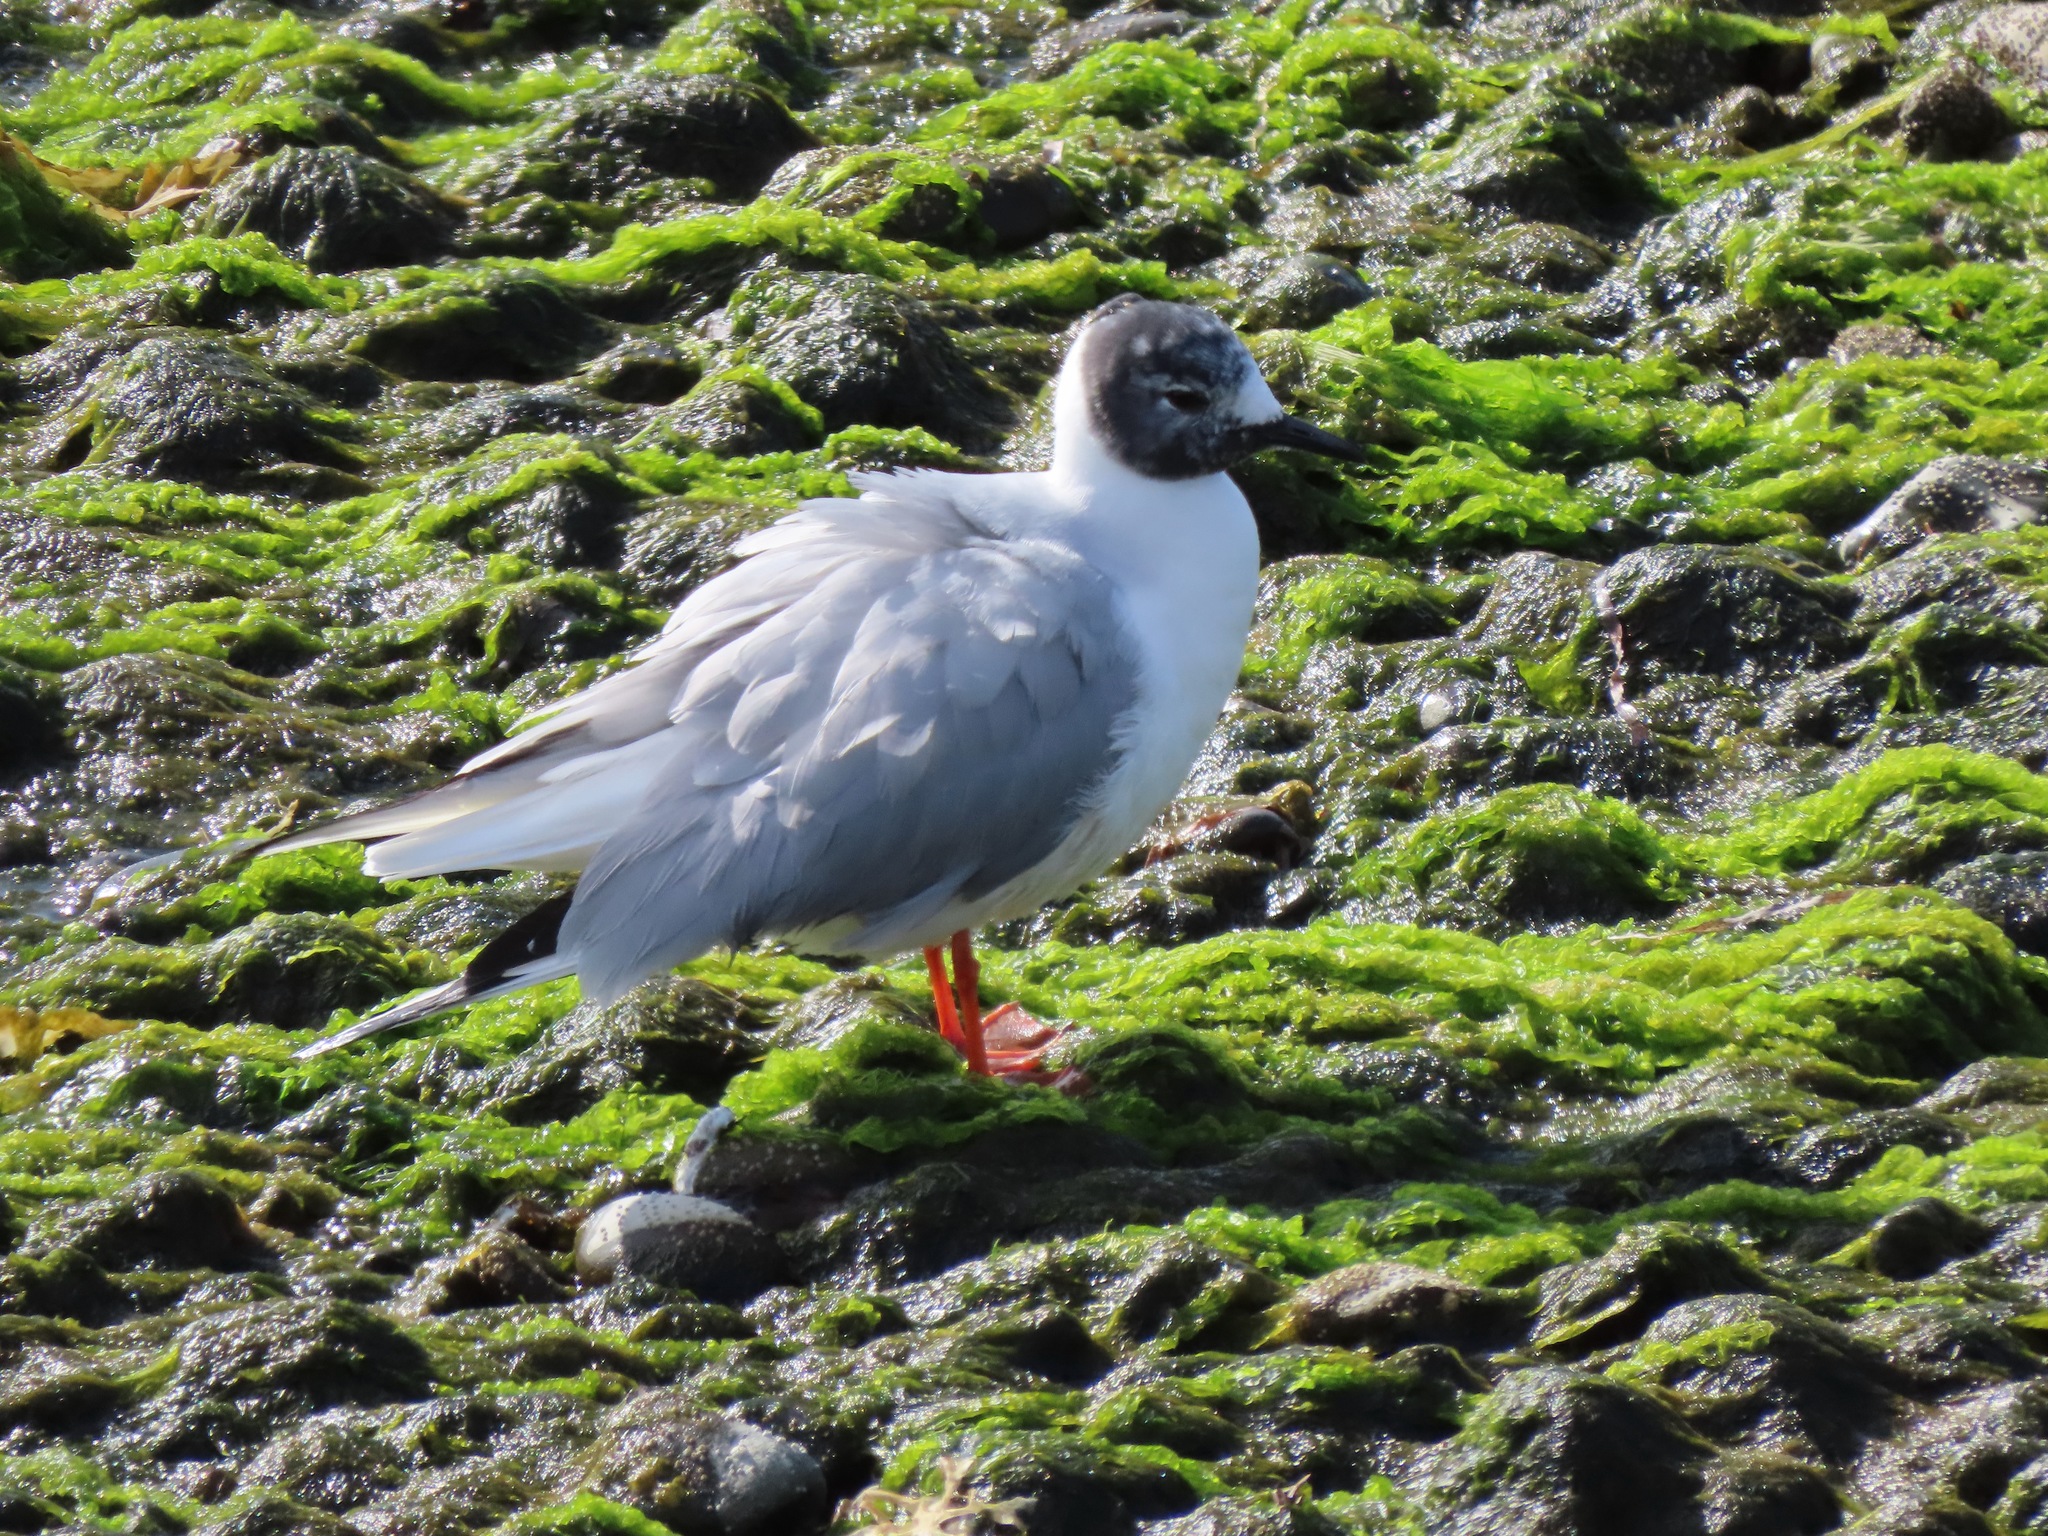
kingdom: Animalia
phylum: Chordata
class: Aves
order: Charadriiformes
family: Laridae
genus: Chroicocephalus
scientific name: Chroicocephalus philadelphia
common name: Bonaparte's gull
